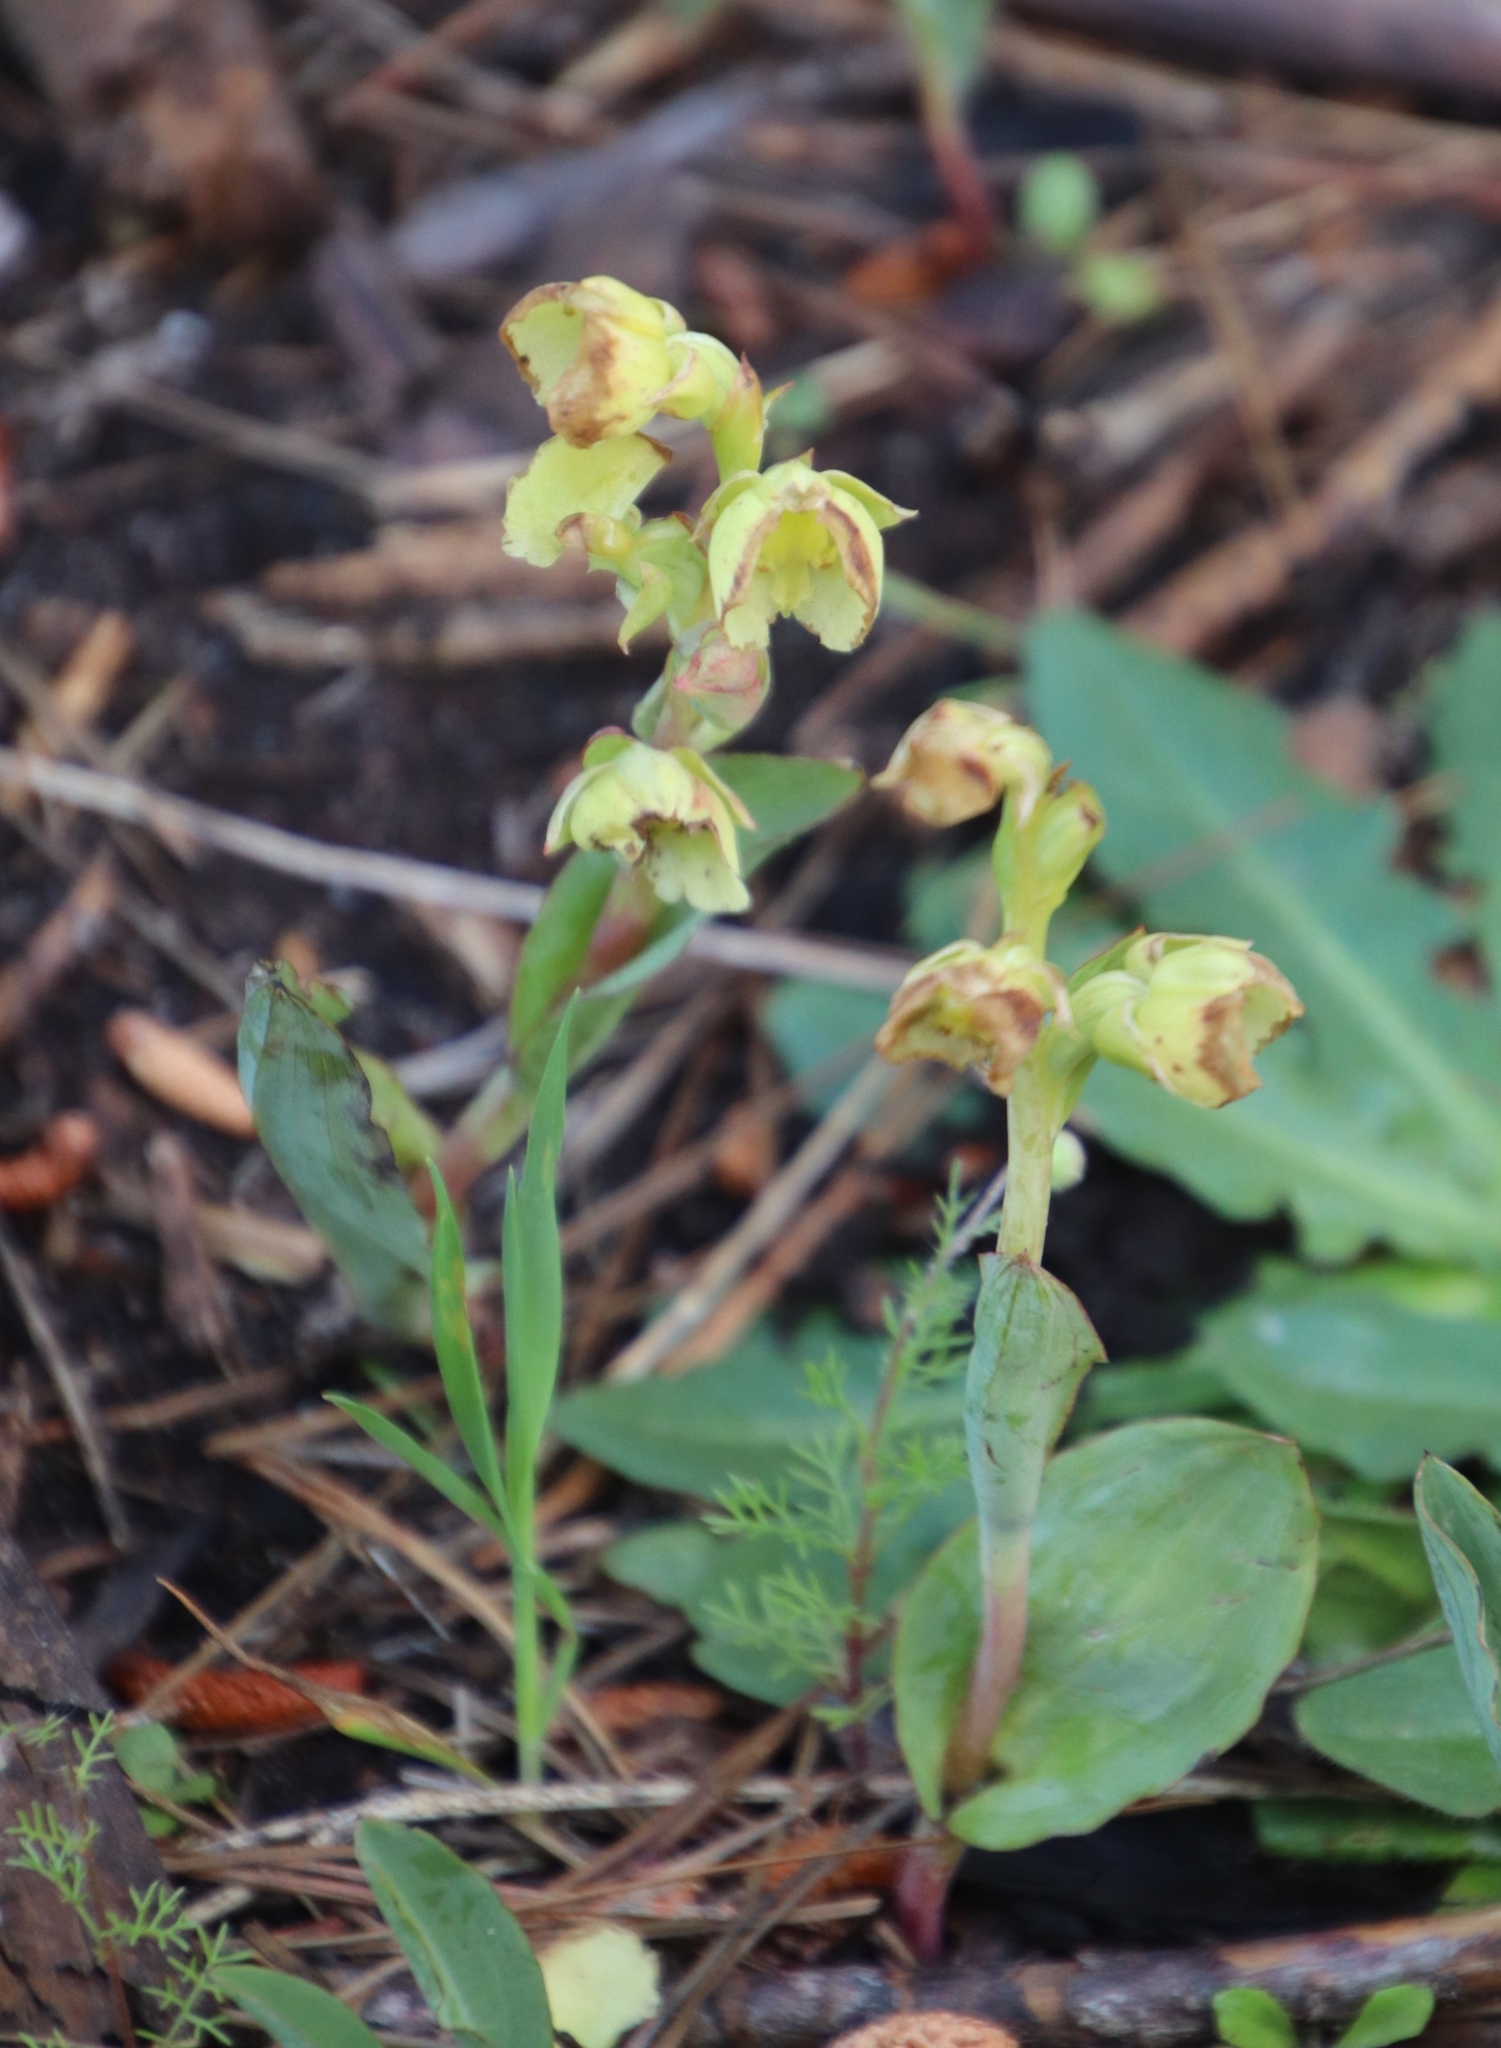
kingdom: Plantae
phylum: Tracheophyta
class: Liliopsida
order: Asparagales
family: Orchidaceae
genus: Pterygodium
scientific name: Pterygodium catholicum
